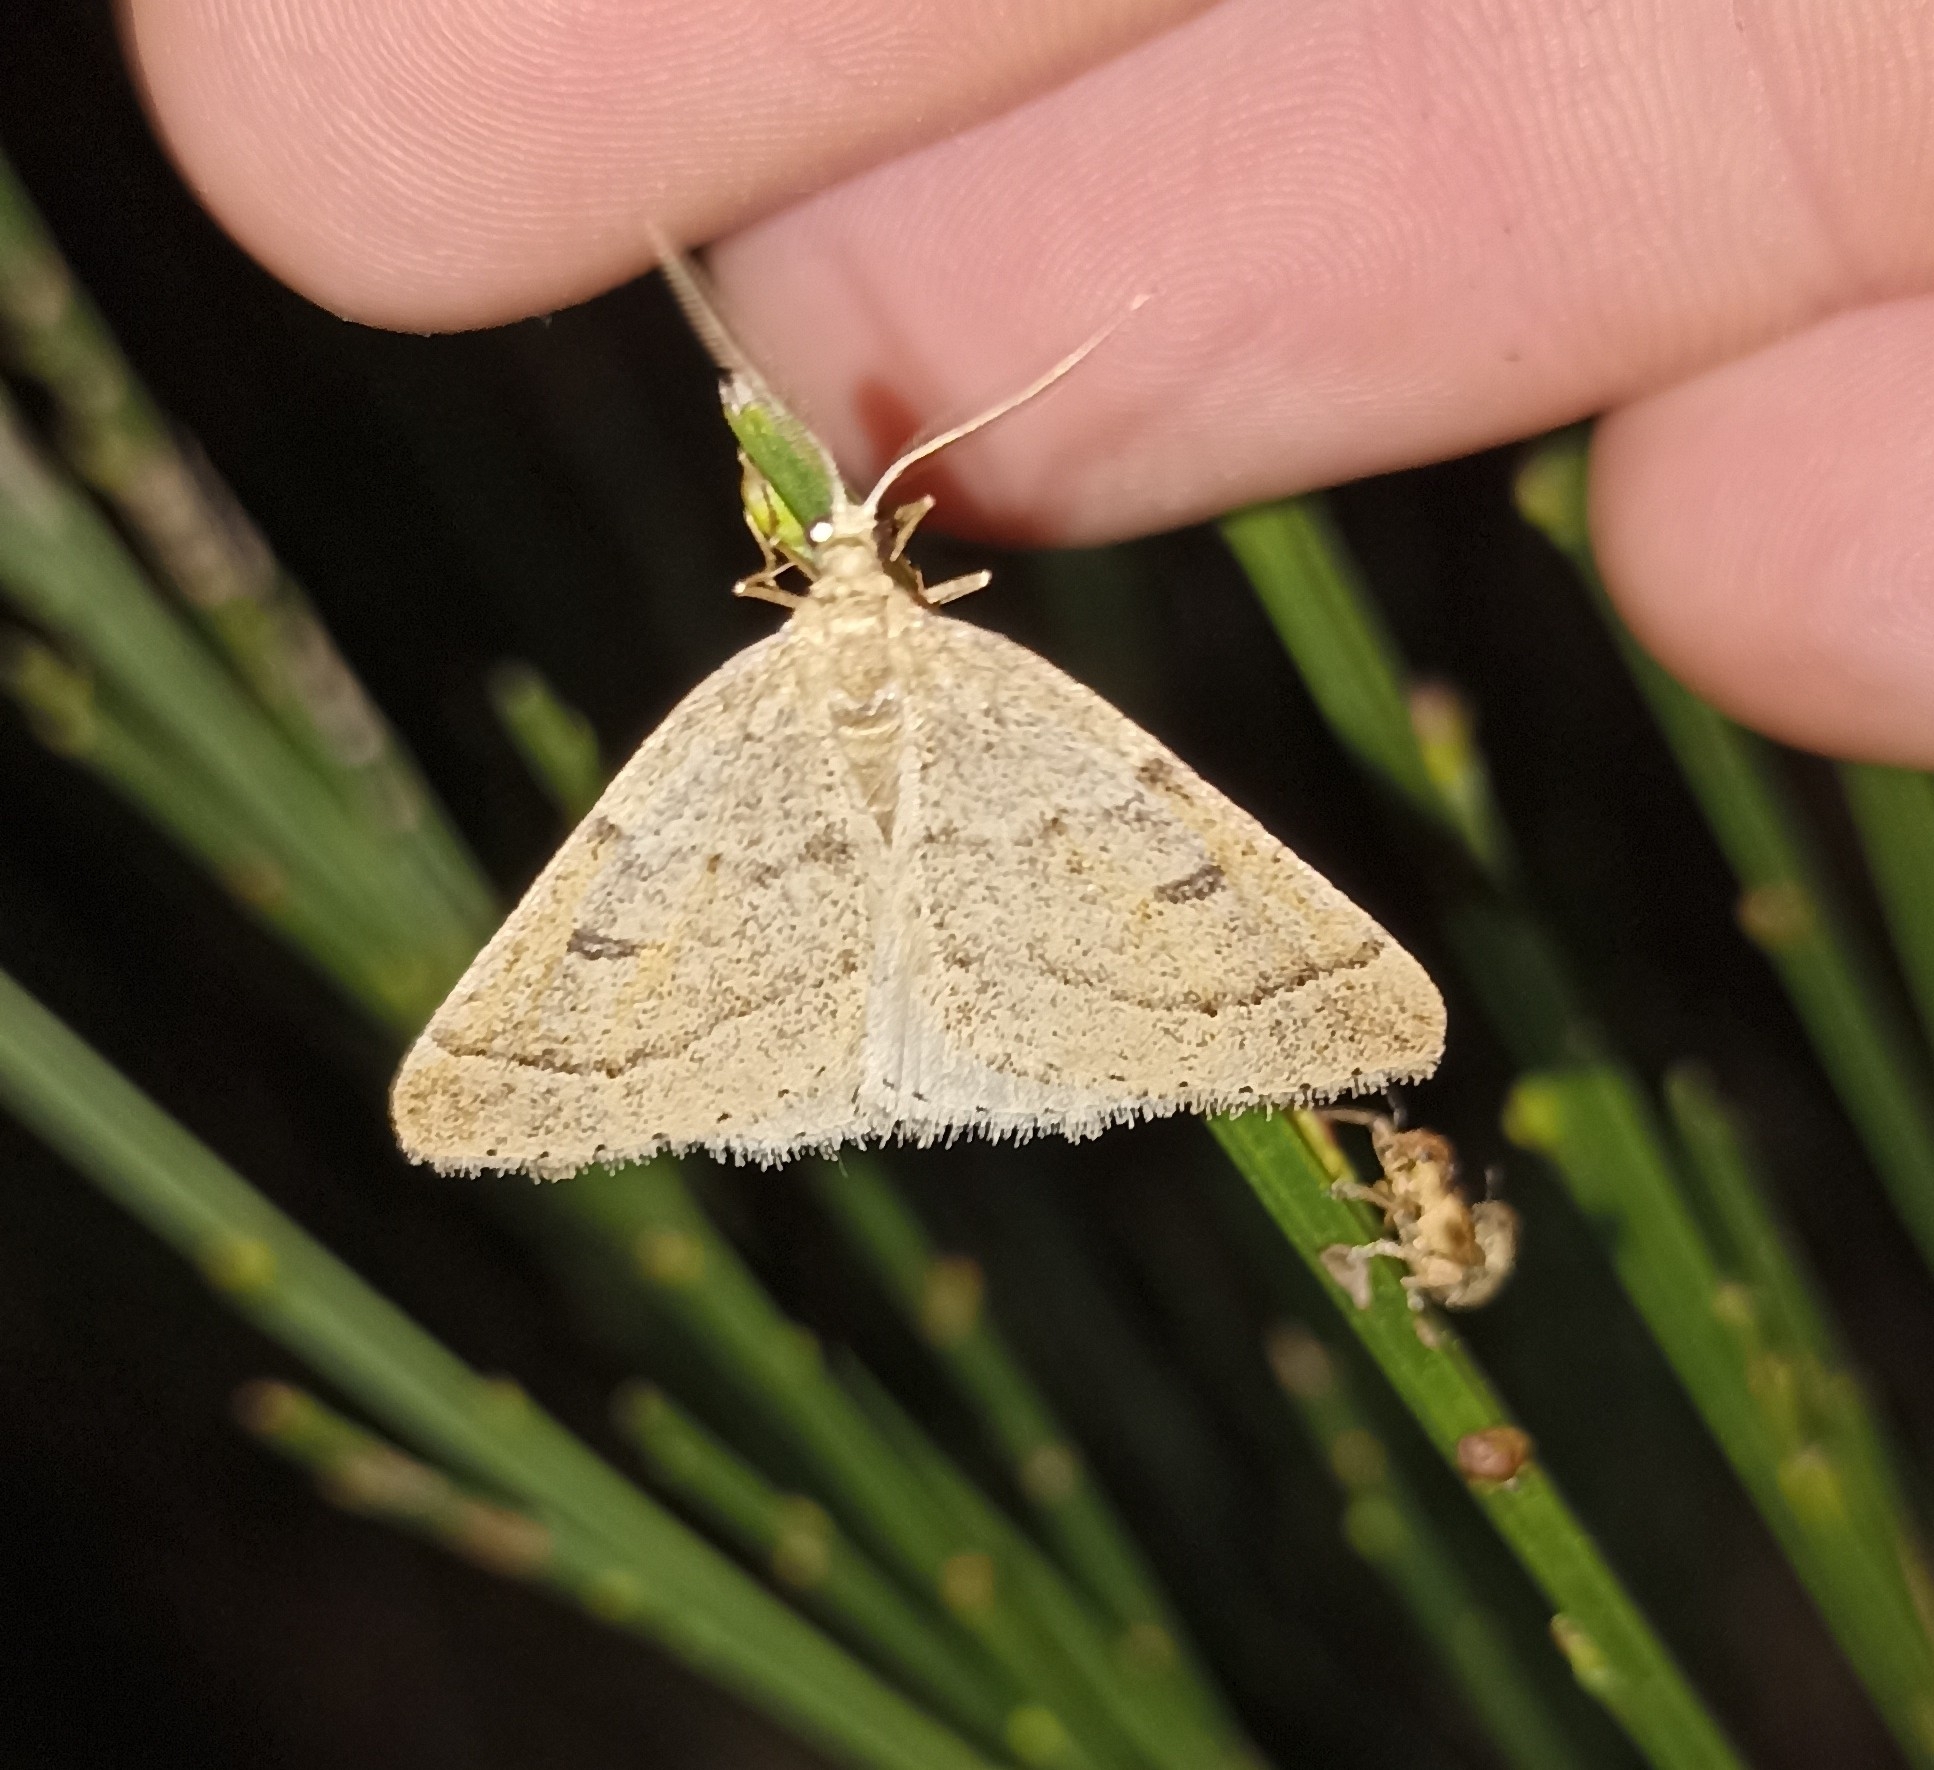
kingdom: Animalia
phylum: Arthropoda
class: Insecta
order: Lepidoptera
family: Geometridae
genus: Theria
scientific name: Theria rupicapraria
